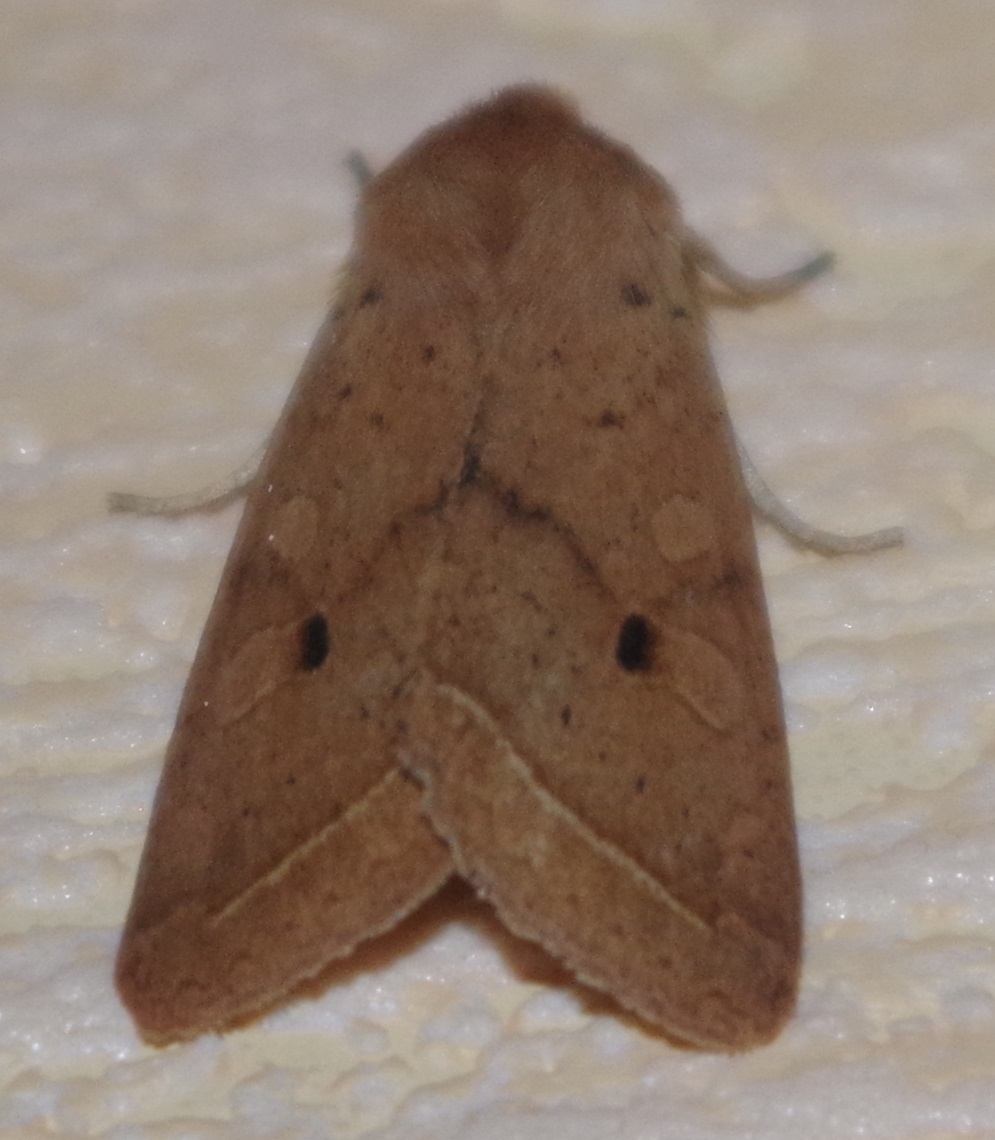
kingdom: Animalia
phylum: Arthropoda
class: Insecta
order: Lepidoptera
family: Noctuidae
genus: Agrochola
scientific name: Agrochola macilenta
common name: Yellow-line quaker
